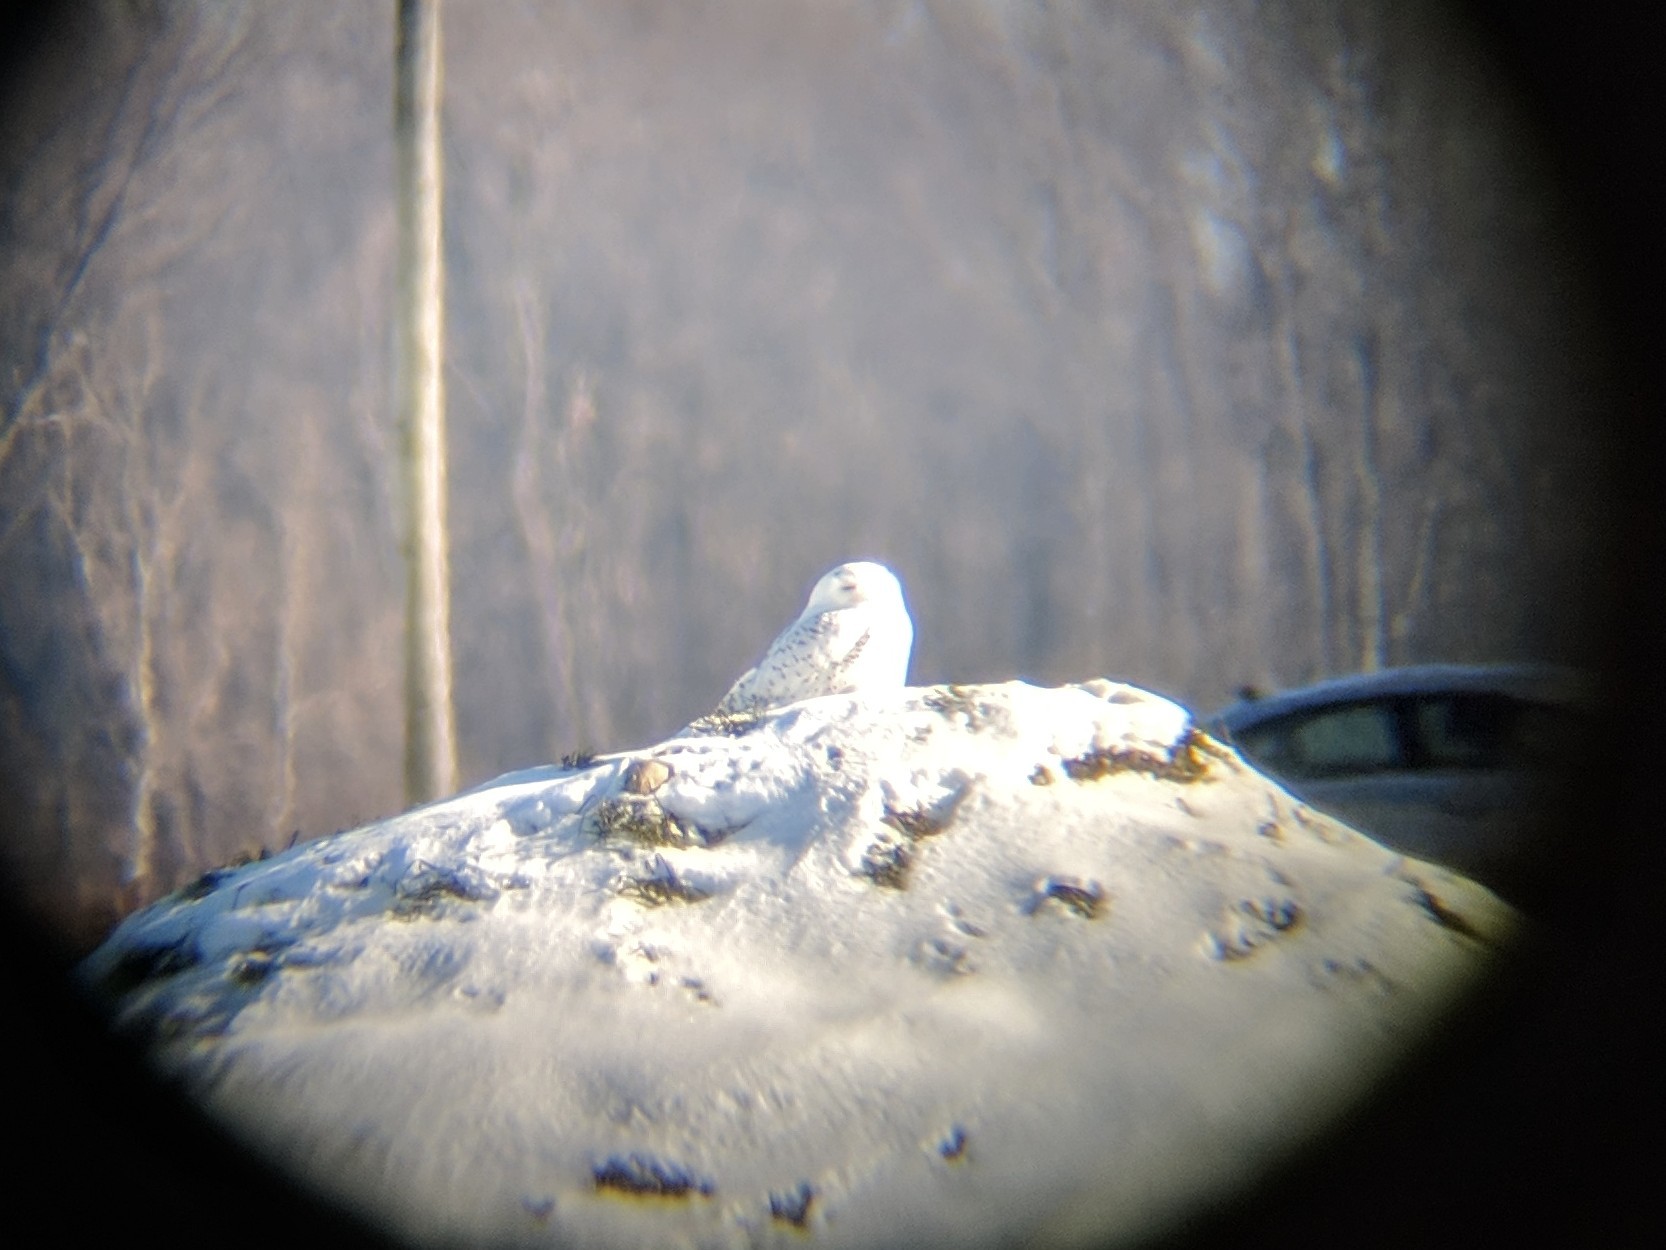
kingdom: Animalia
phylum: Chordata
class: Aves
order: Strigiformes
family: Strigidae
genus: Bubo
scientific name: Bubo scandiacus
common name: Snowy owl
